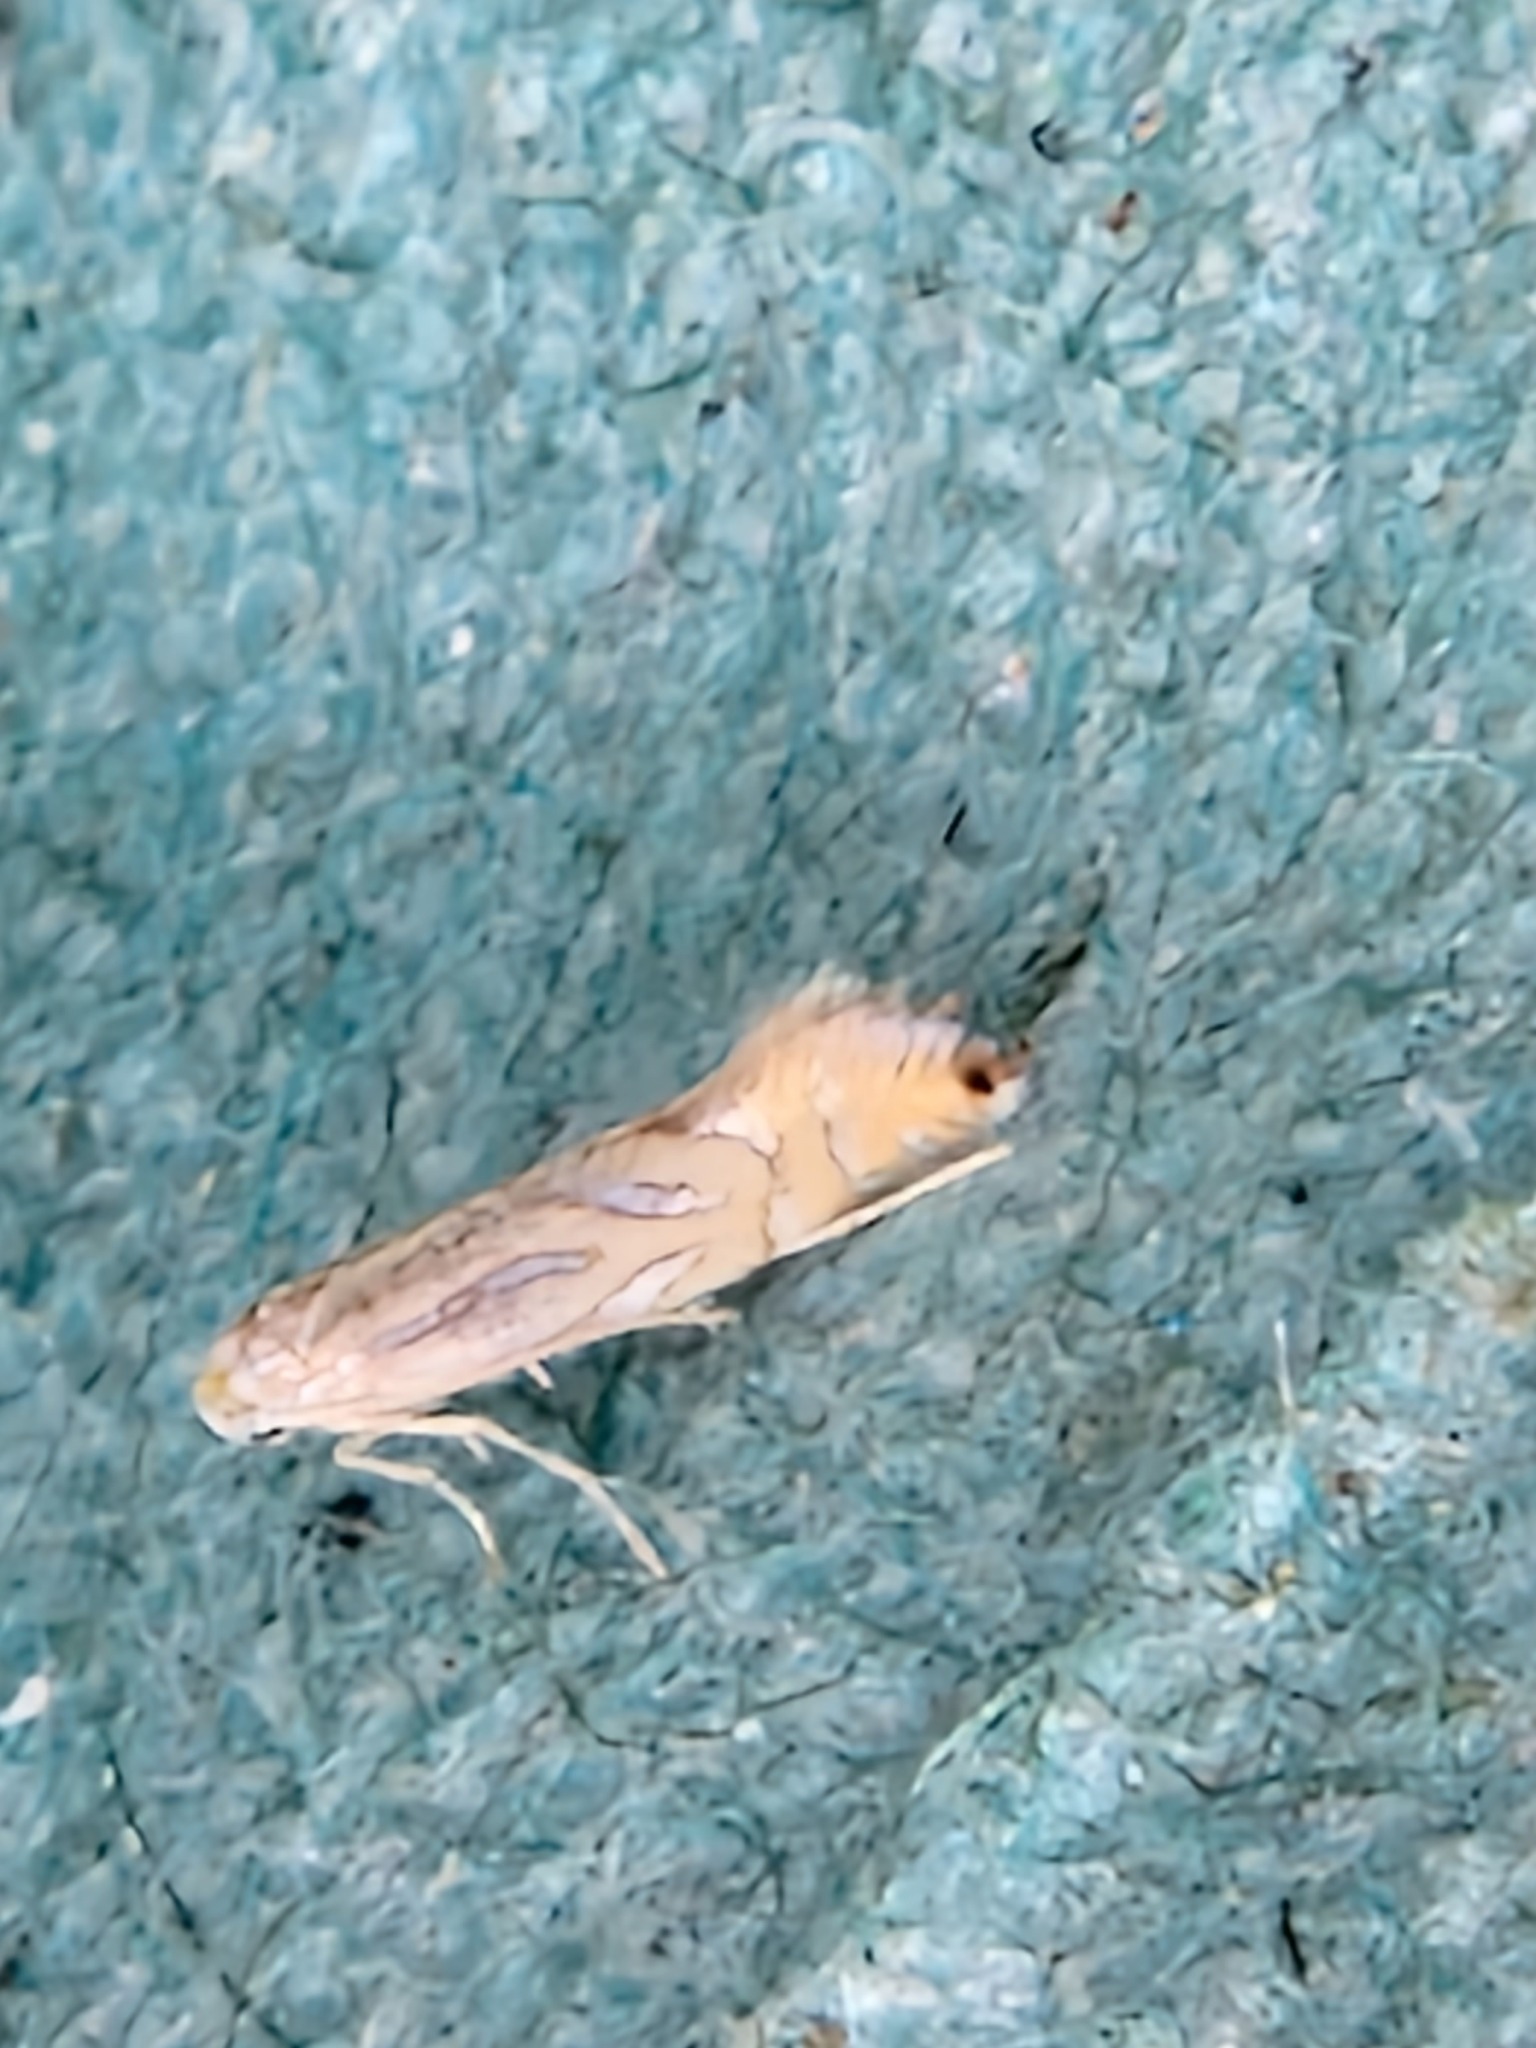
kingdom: Animalia
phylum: Arthropoda
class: Insecta
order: Lepidoptera
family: Gracillariidae
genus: Phyllonorycter
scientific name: Phyllonorycter platani
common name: London midget
